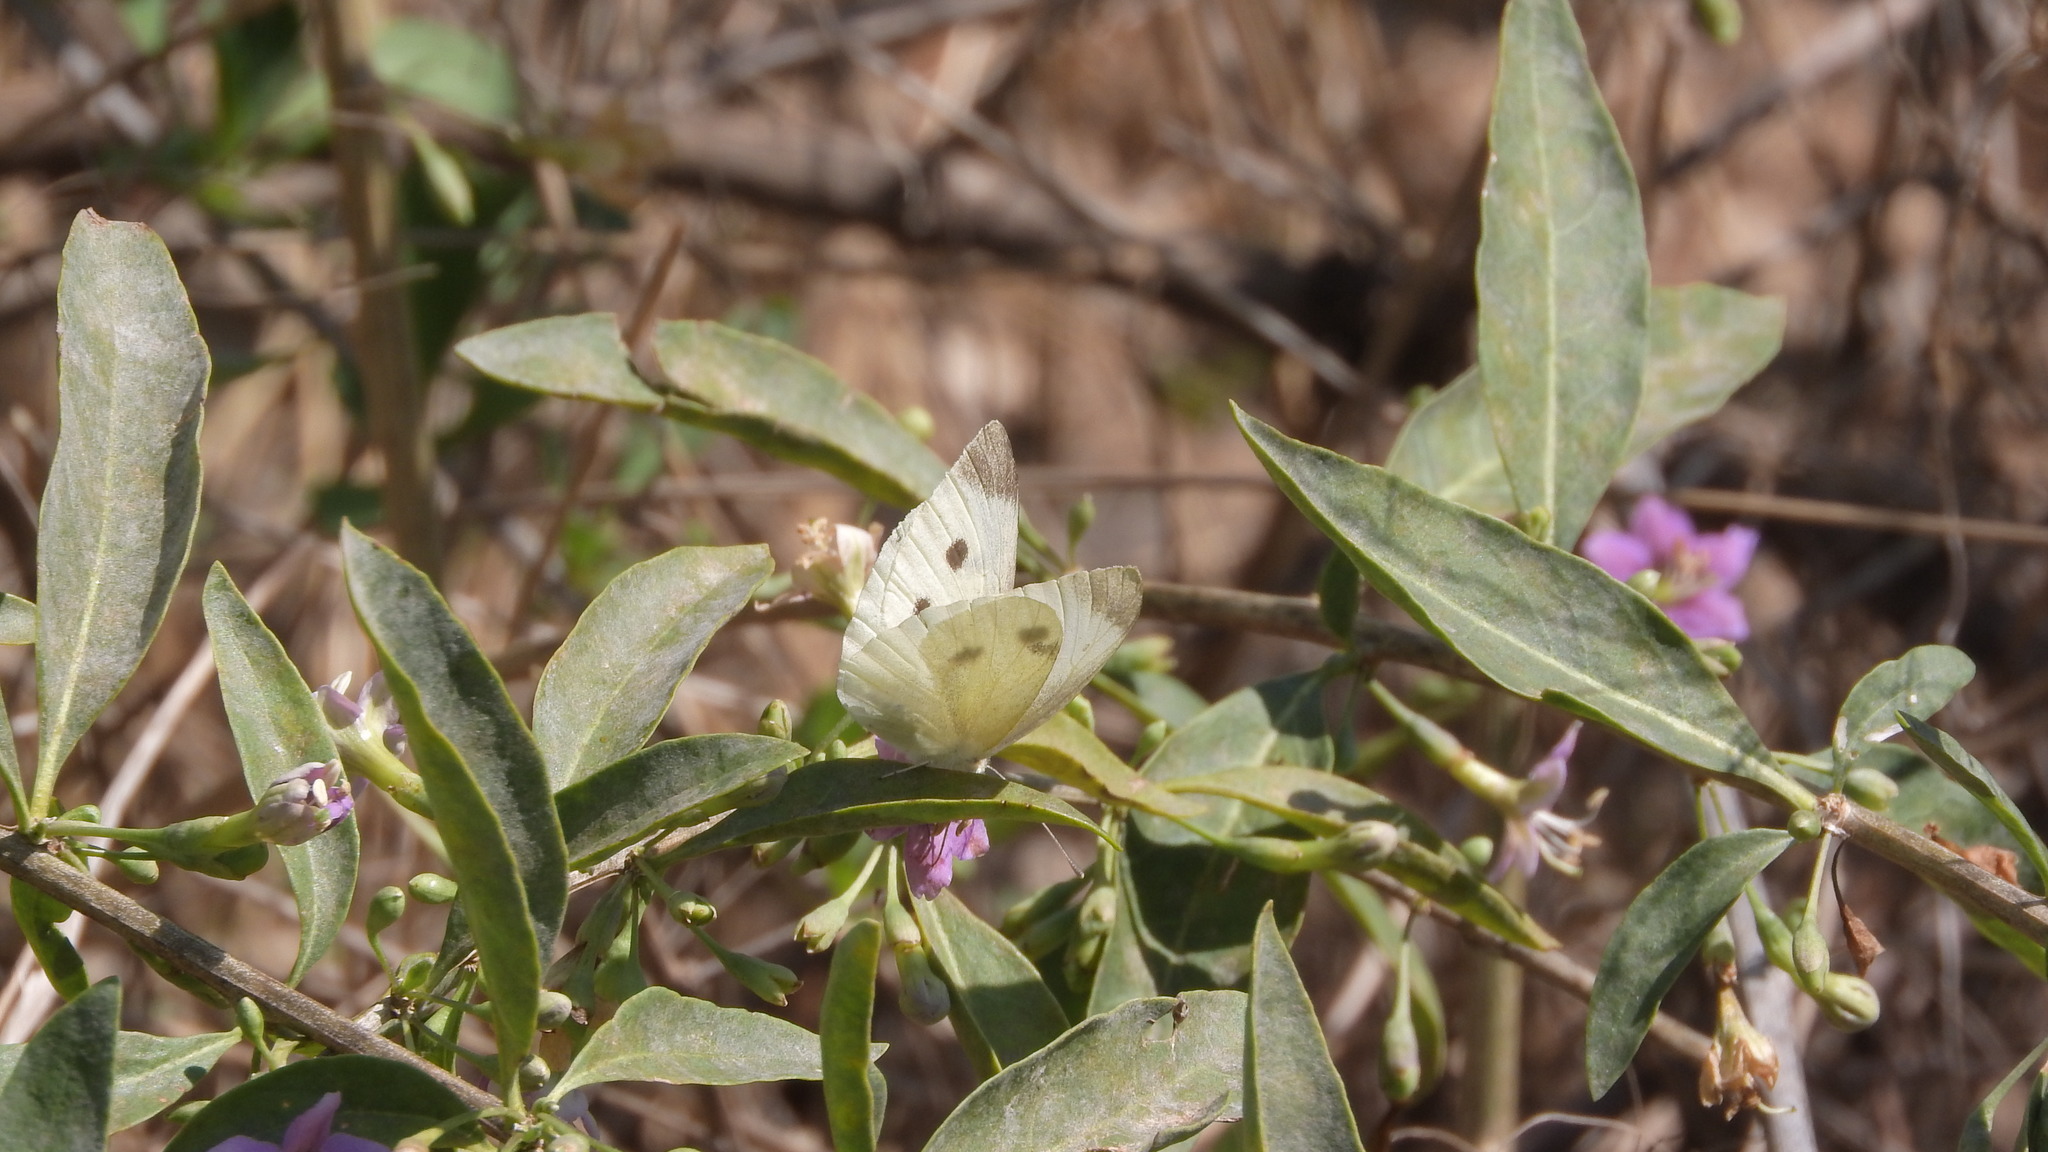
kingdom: Animalia
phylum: Arthropoda
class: Insecta
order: Lepidoptera
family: Pieridae
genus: Pieris
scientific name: Pieris rapae
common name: Small white
